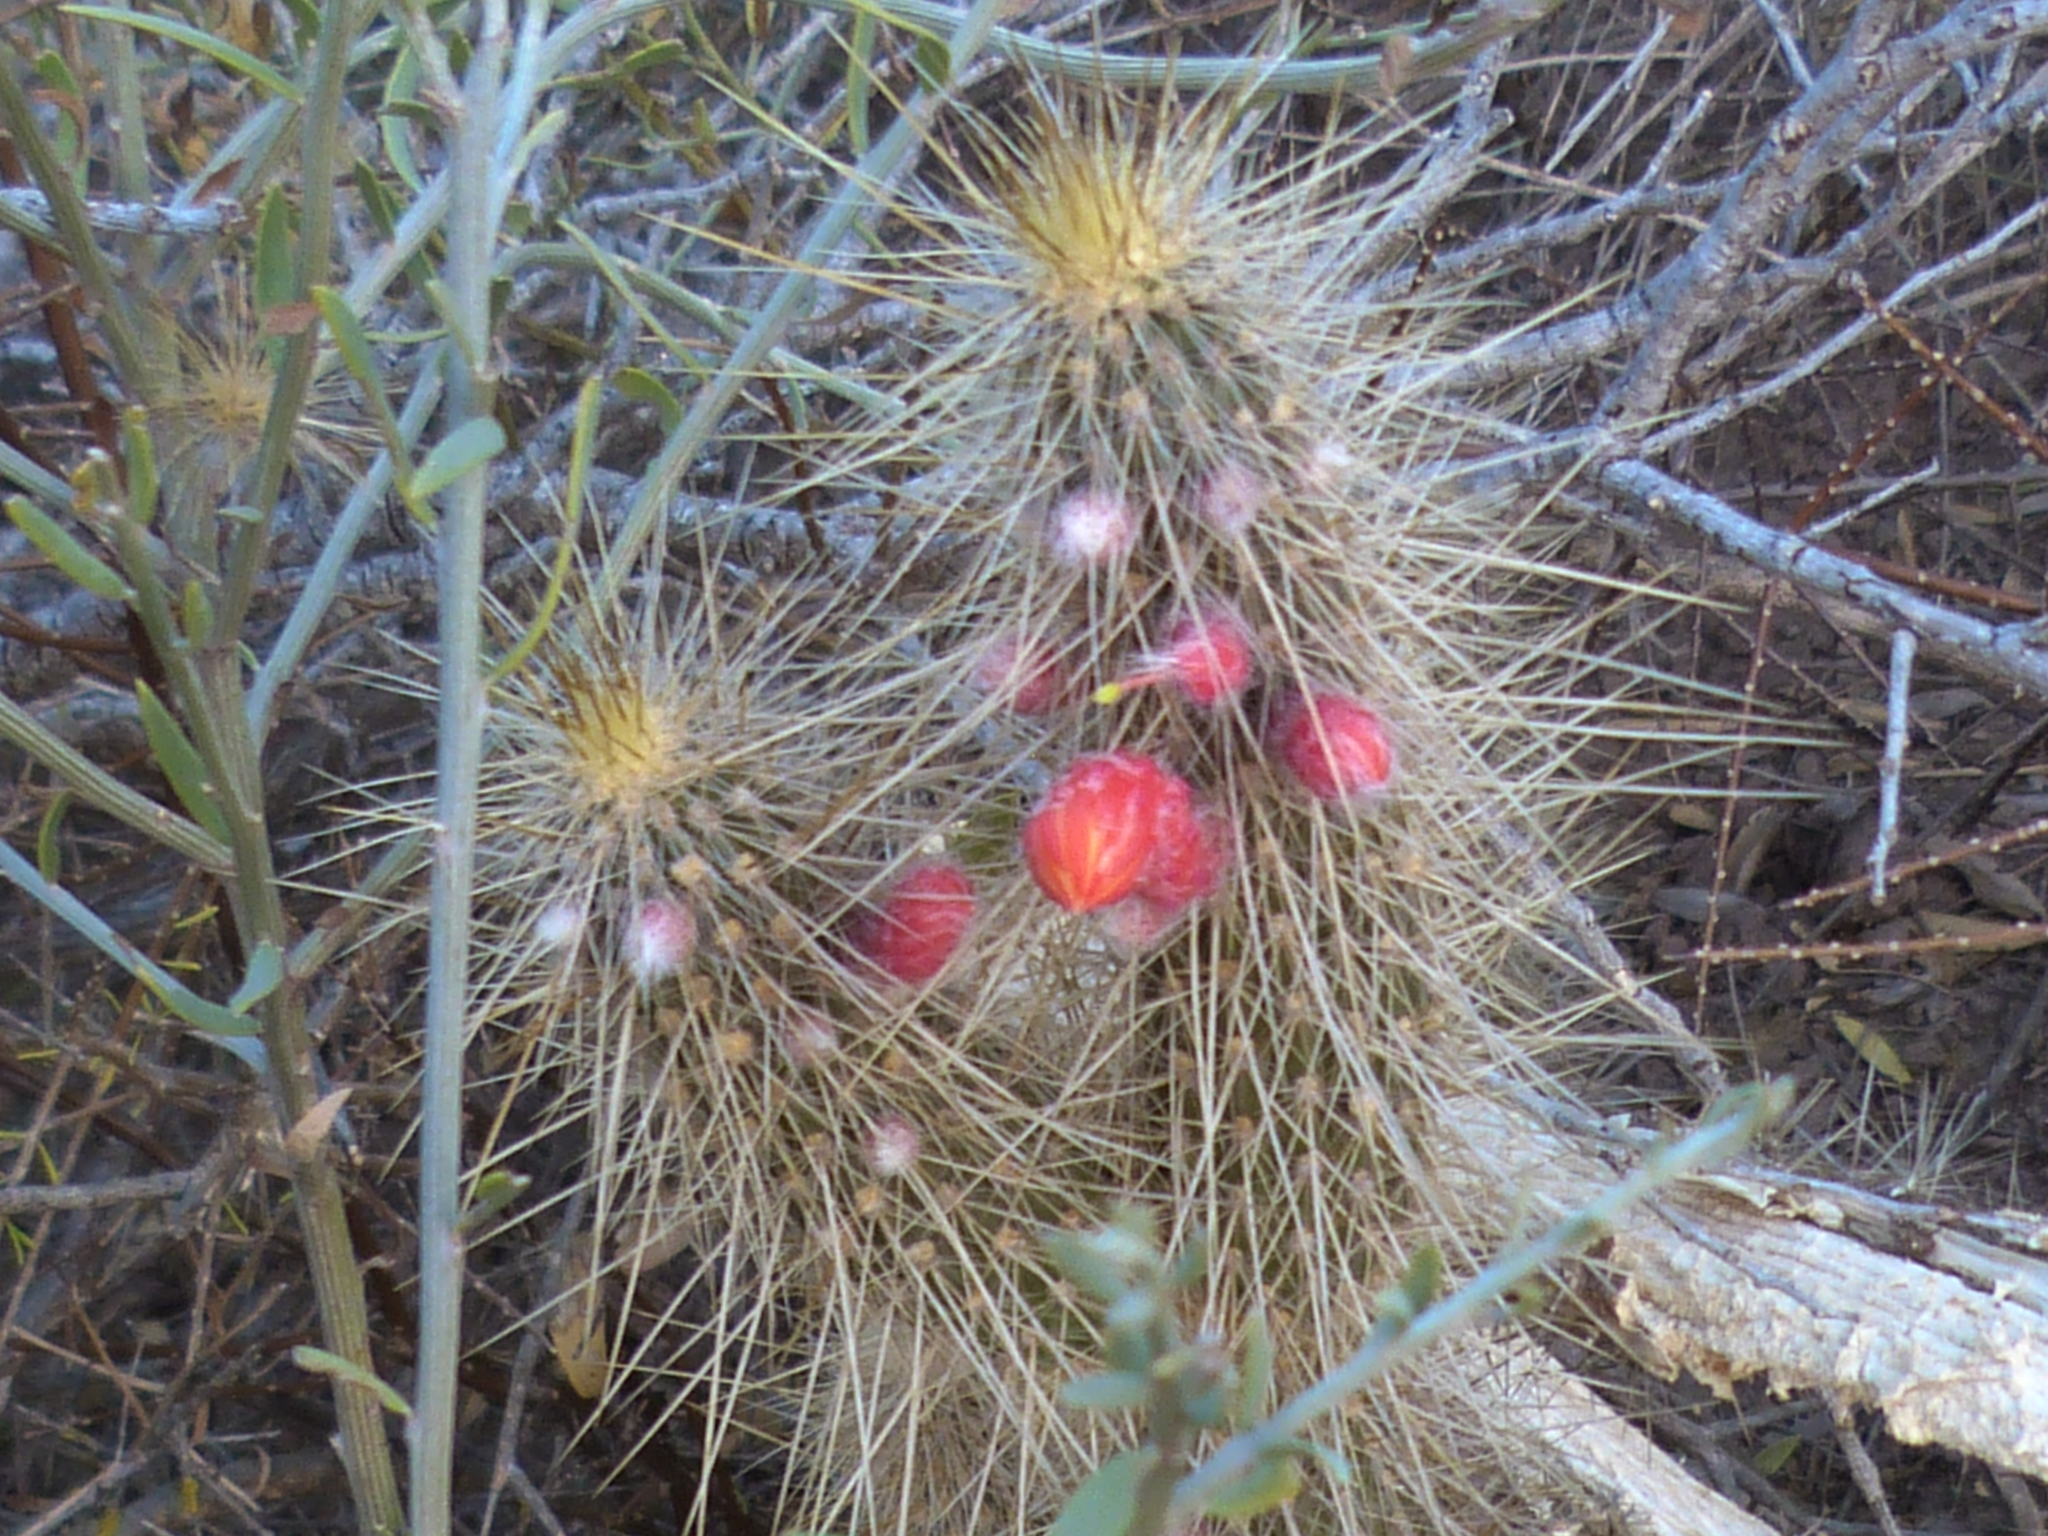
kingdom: Plantae
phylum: Tracheophyta
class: Magnoliopsida
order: Caryophyllales
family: Cactaceae
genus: Cleistocactus
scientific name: Cleistocactus baumannii
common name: Scarlet-bugler
